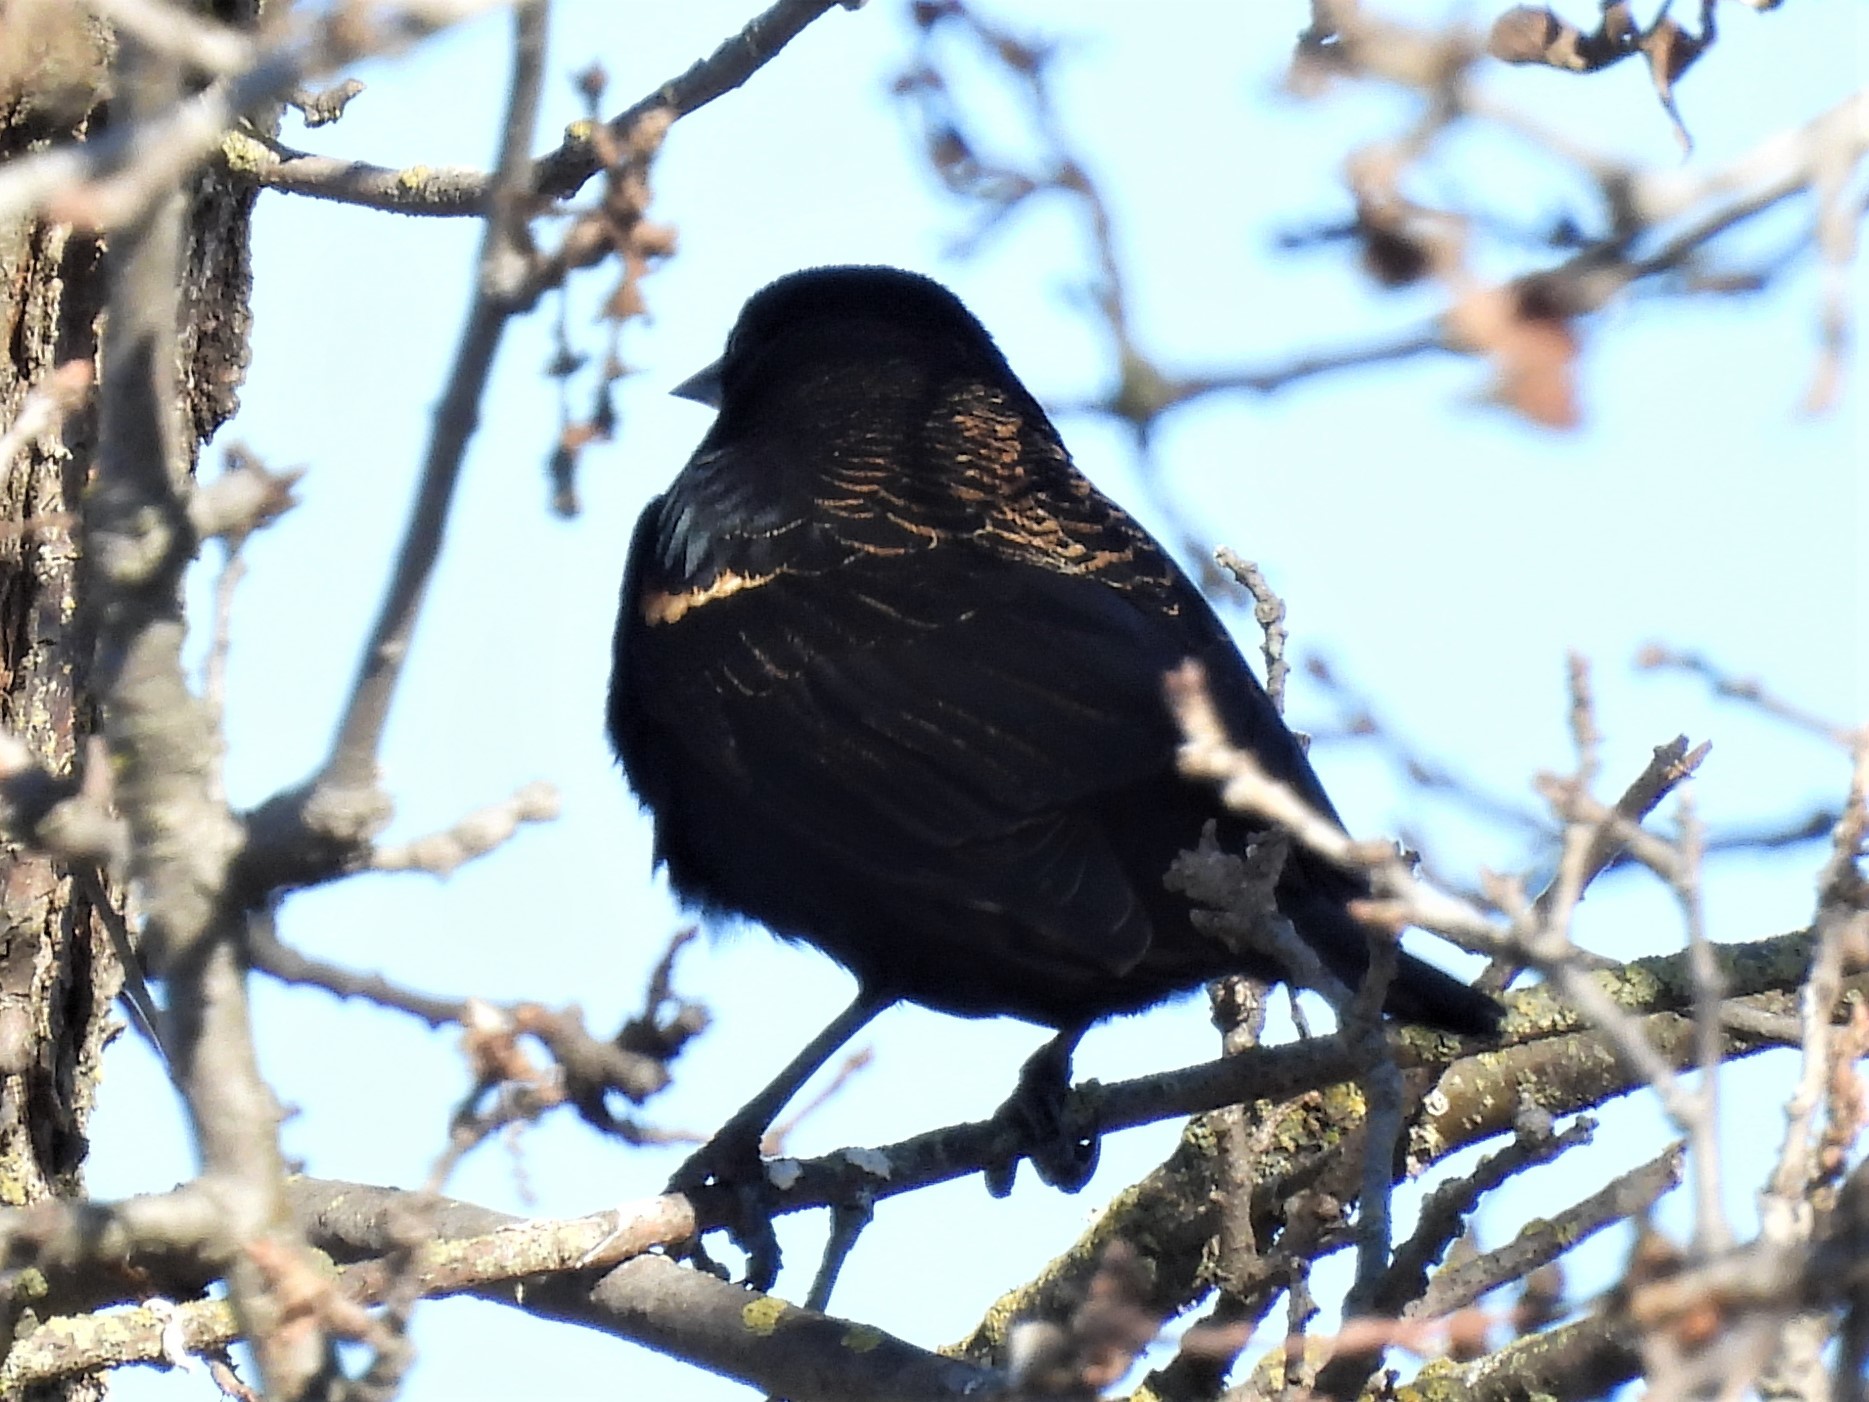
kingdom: Animalia
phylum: Chordata
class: Aves
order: Passeriformes
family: Icteridae
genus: Agelaius
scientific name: Agelaius phoeniceus
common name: Red-winged blackbird
